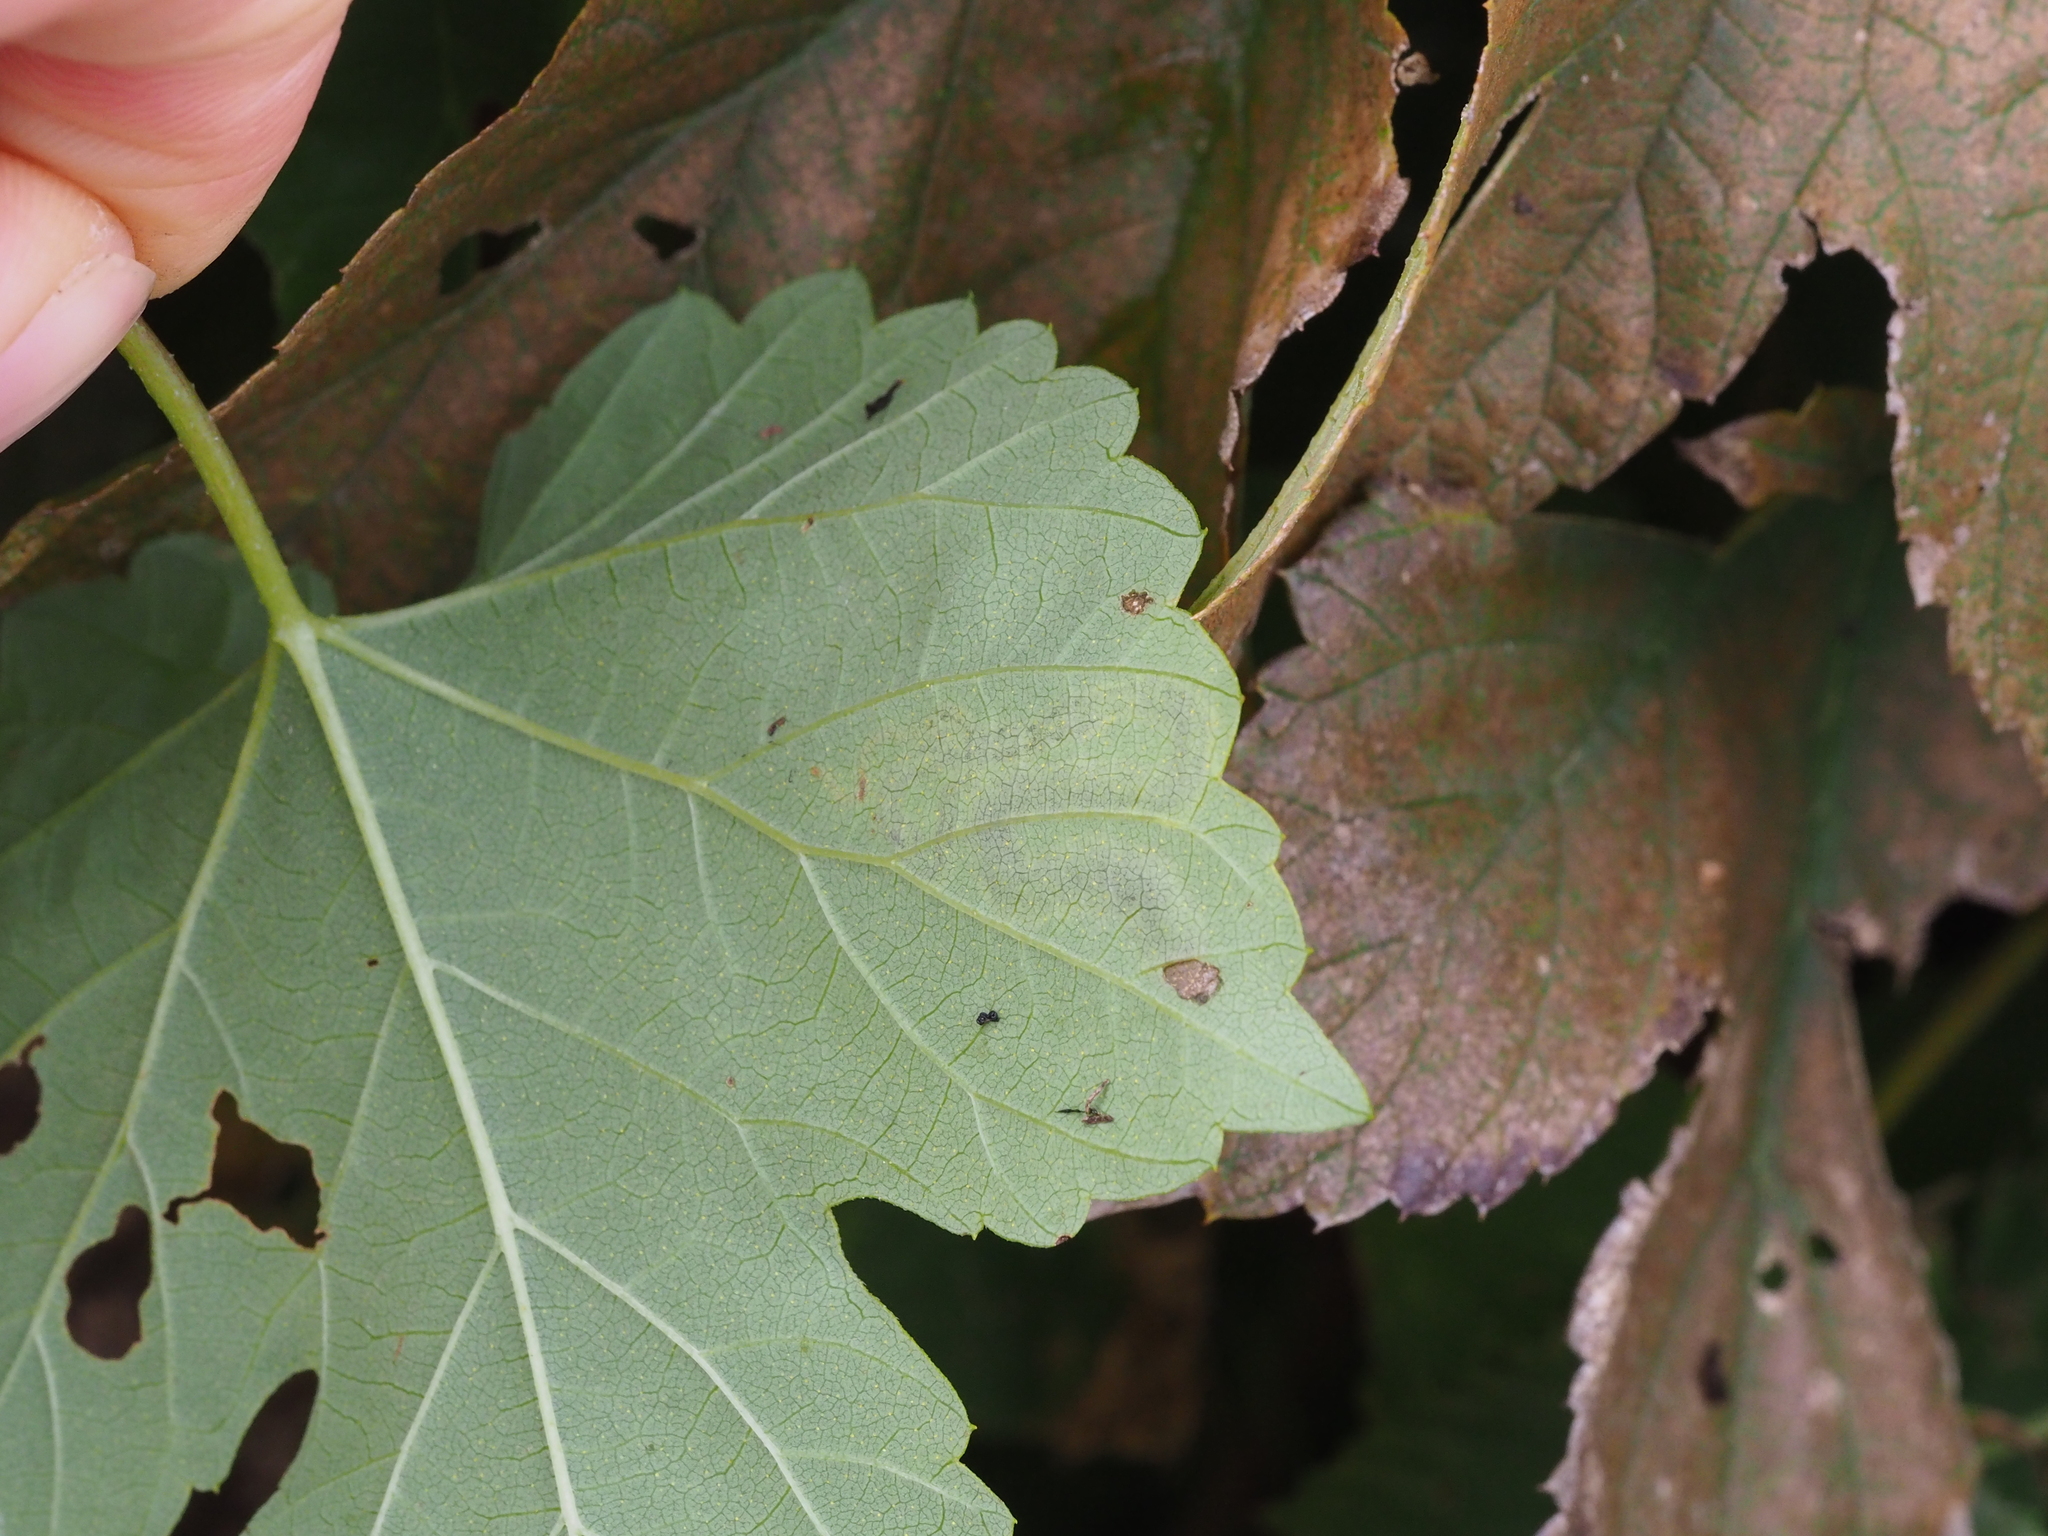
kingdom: Animalia
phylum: Arthropoda
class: Insecta
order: Diptera
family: Agromyzidae
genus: Agromyza
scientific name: Agromyza flaviceps
